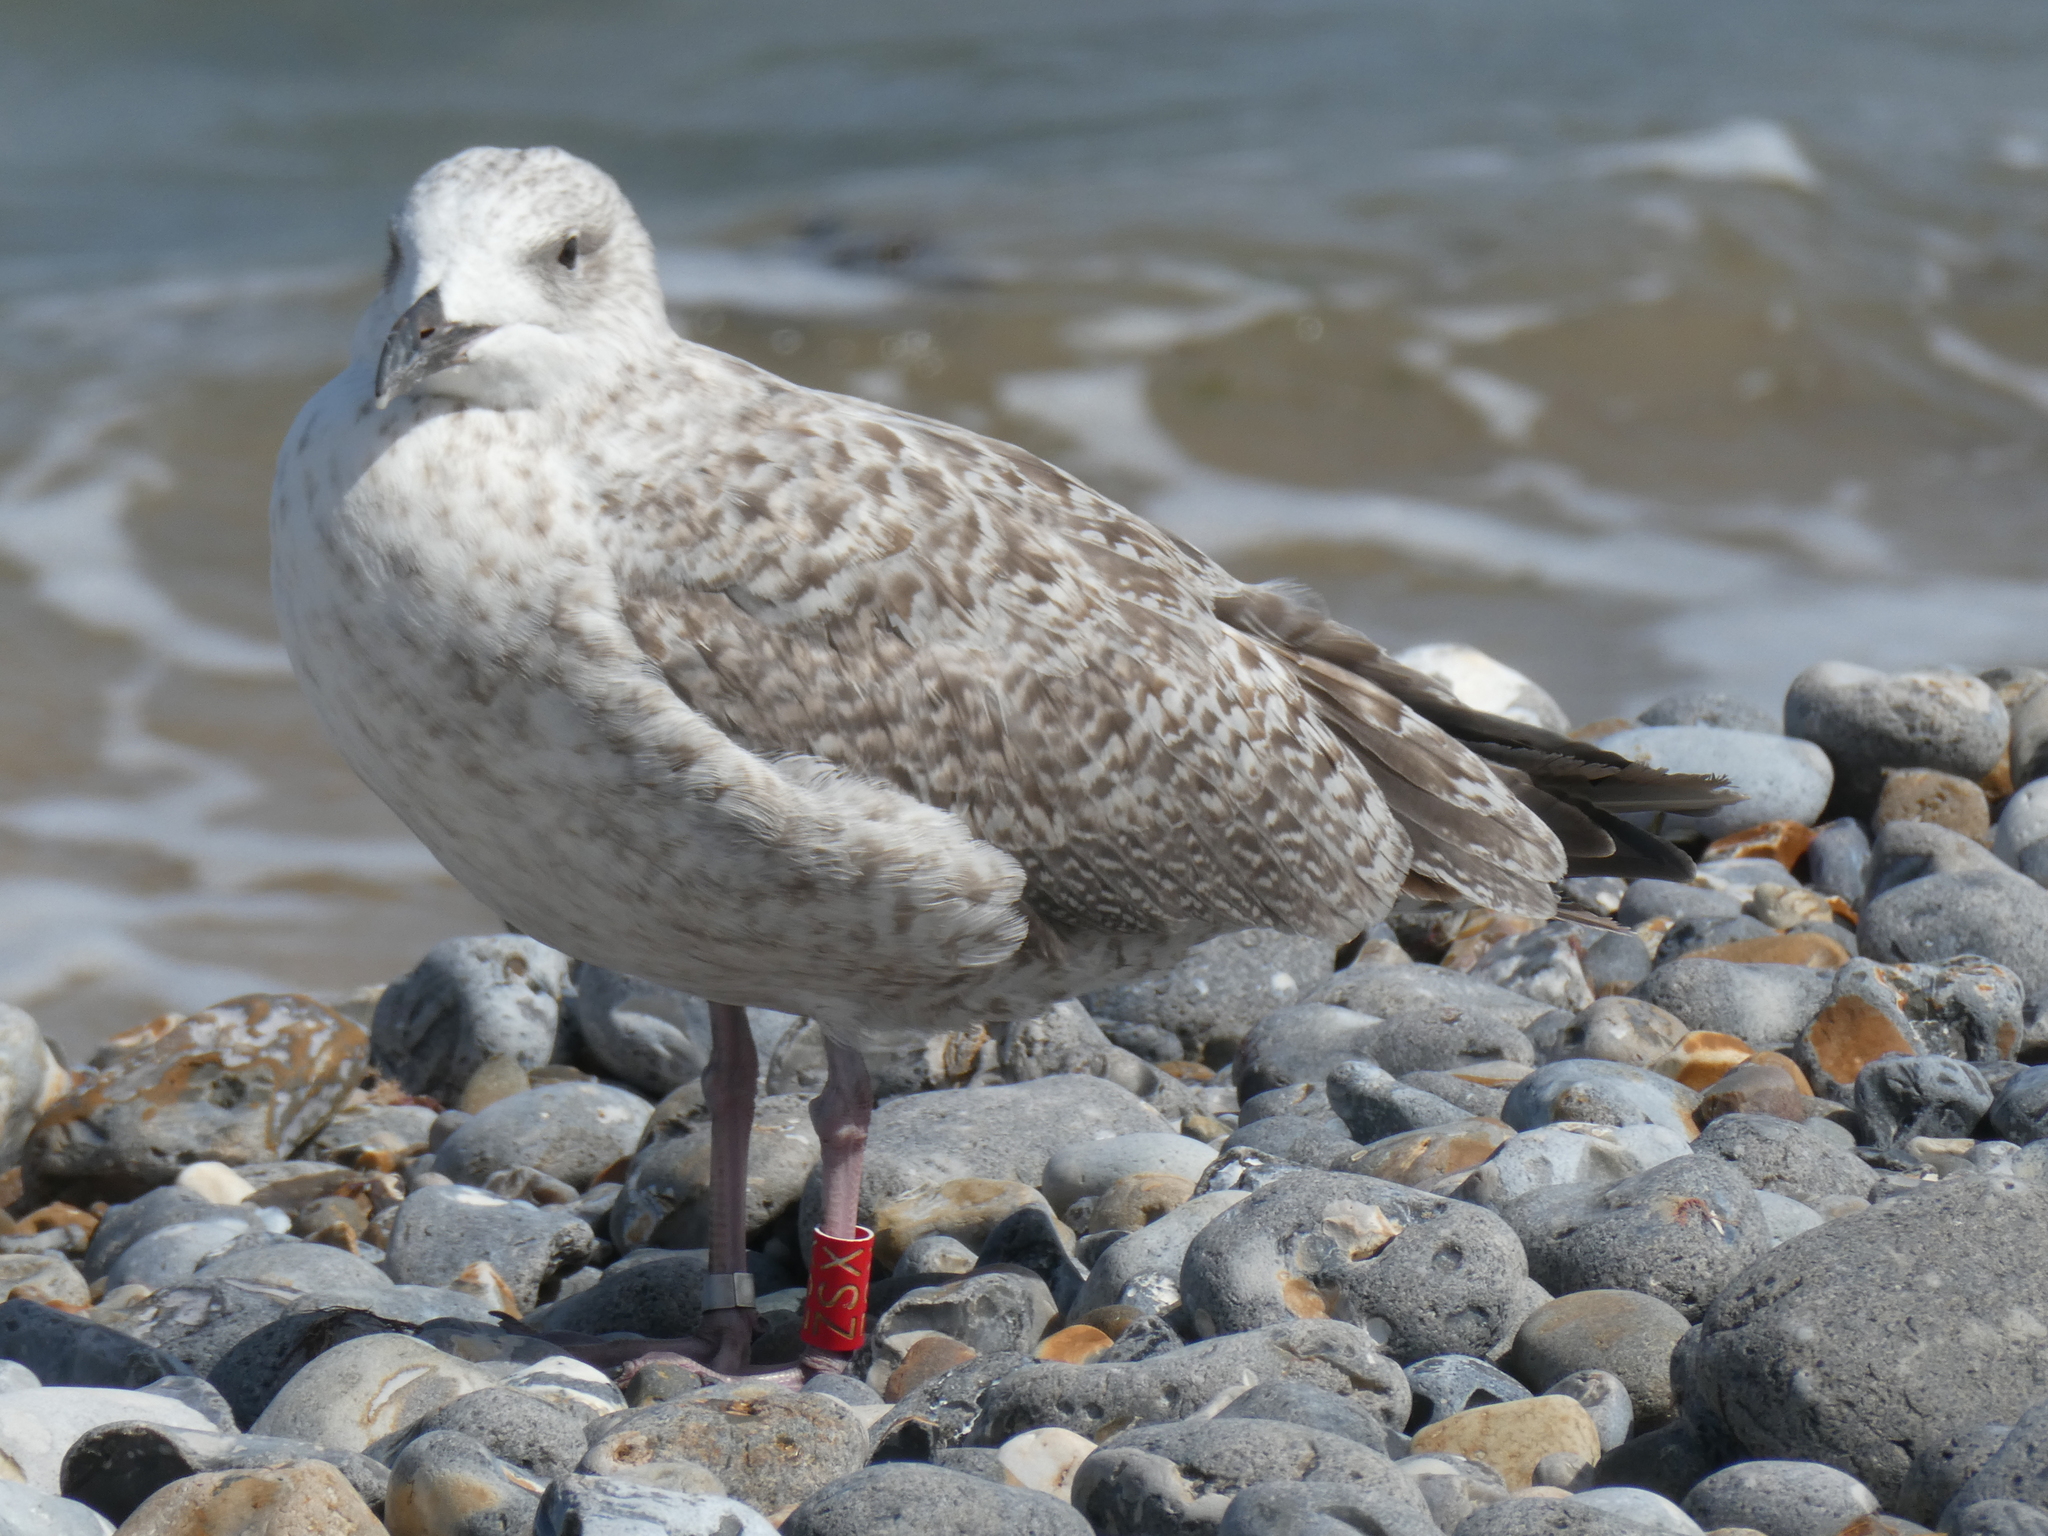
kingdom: Animalia
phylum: Chordata
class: Aves
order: Charadriiformes
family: Laridae
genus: Larus
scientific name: Larus argentatus
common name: Herring gull
